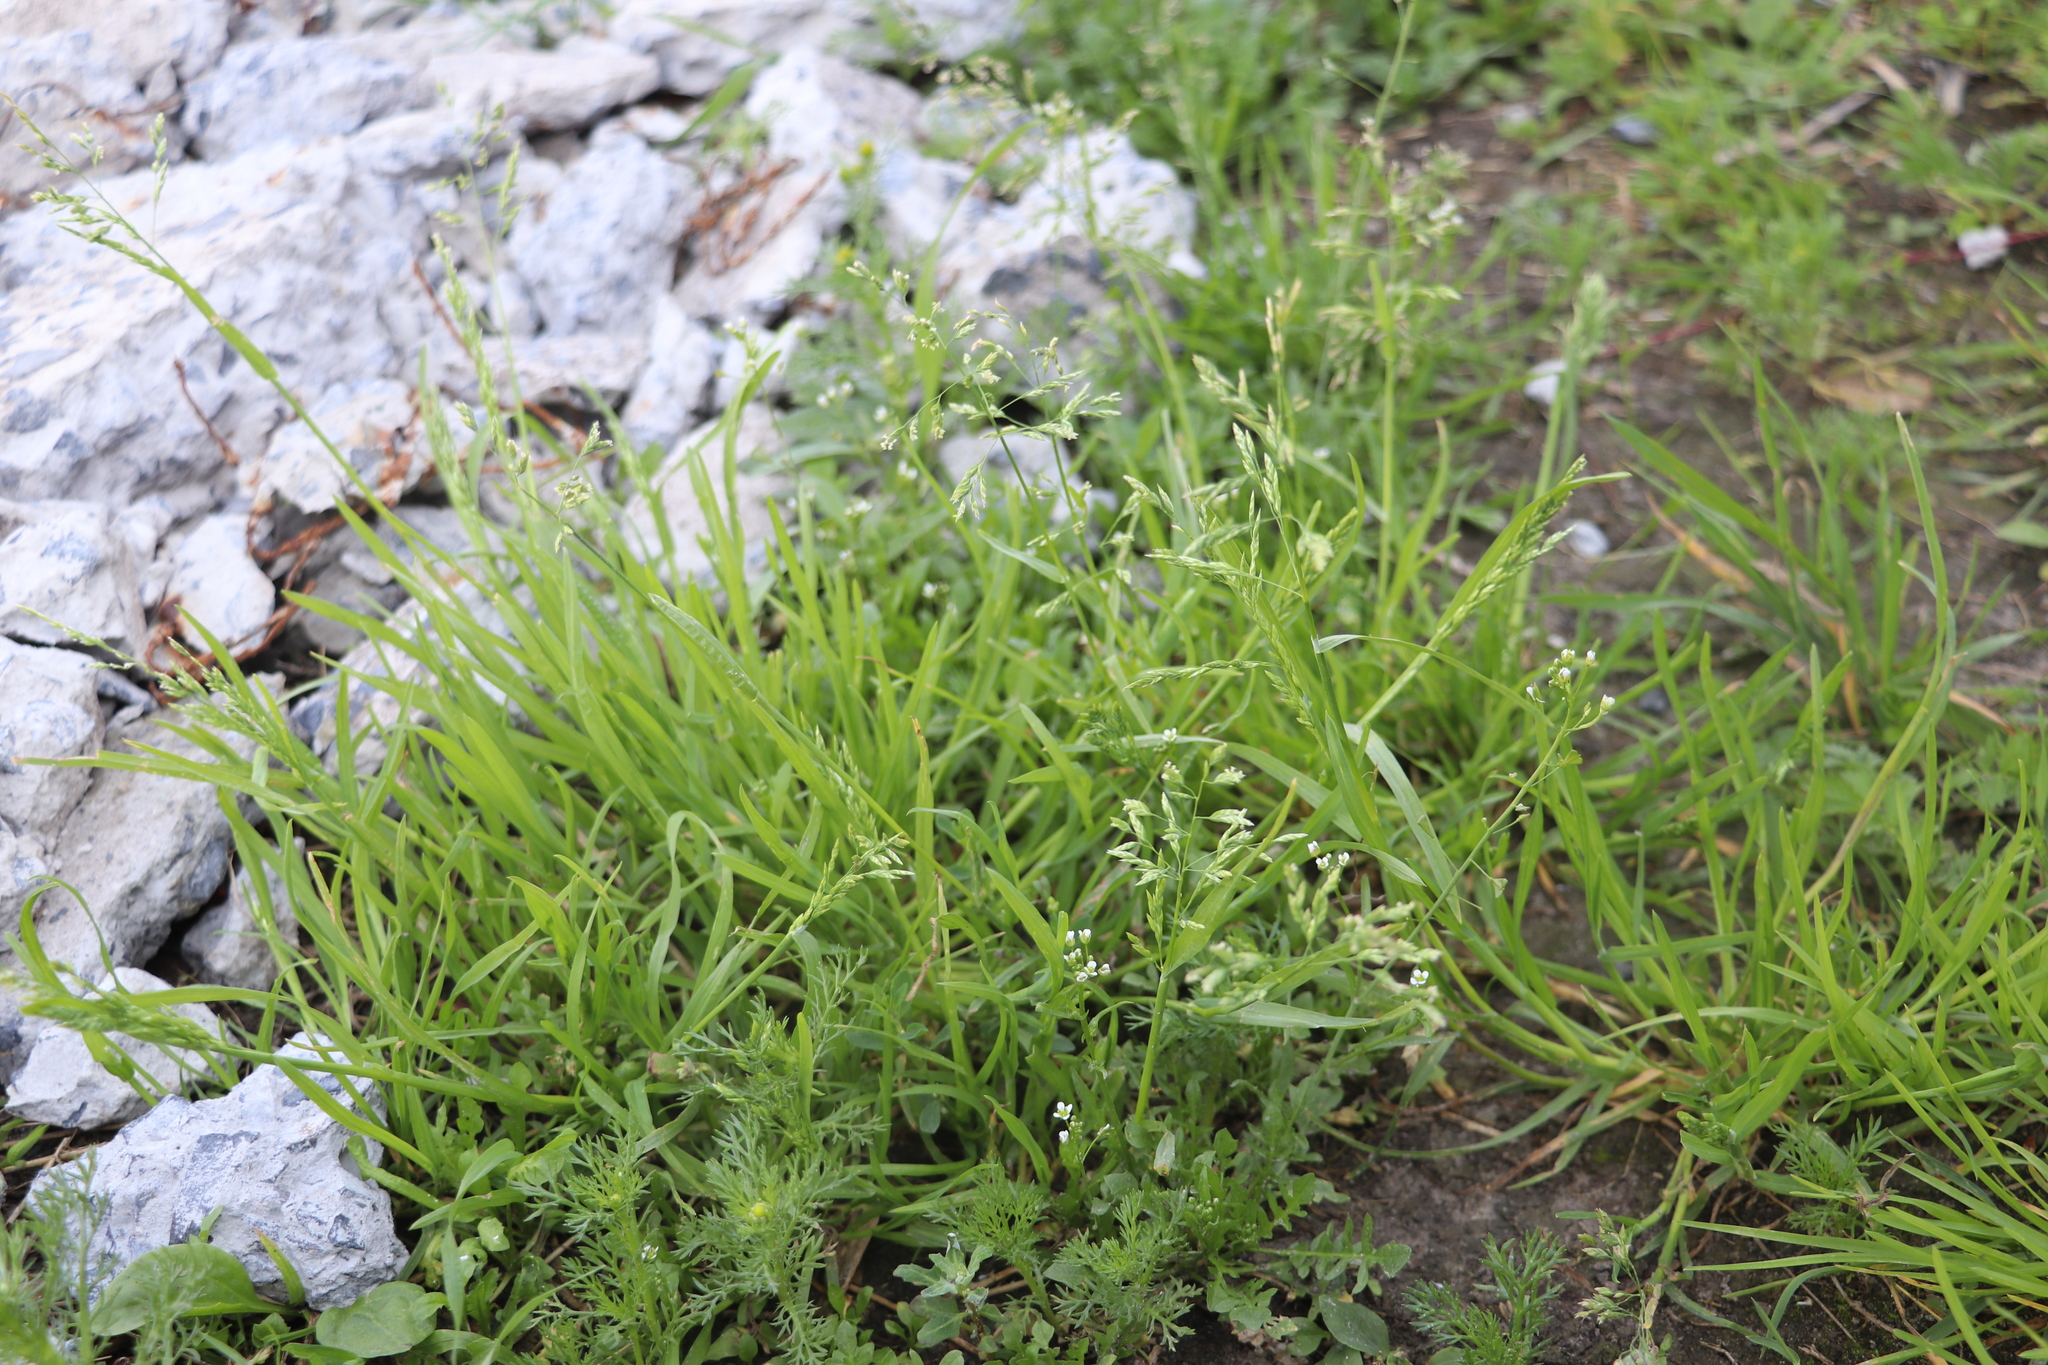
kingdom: Plantae
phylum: Tracheophyta
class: Liliopsida
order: Poales
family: Poaceae
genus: Poa
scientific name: Poa annua
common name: Annual bluegrass
